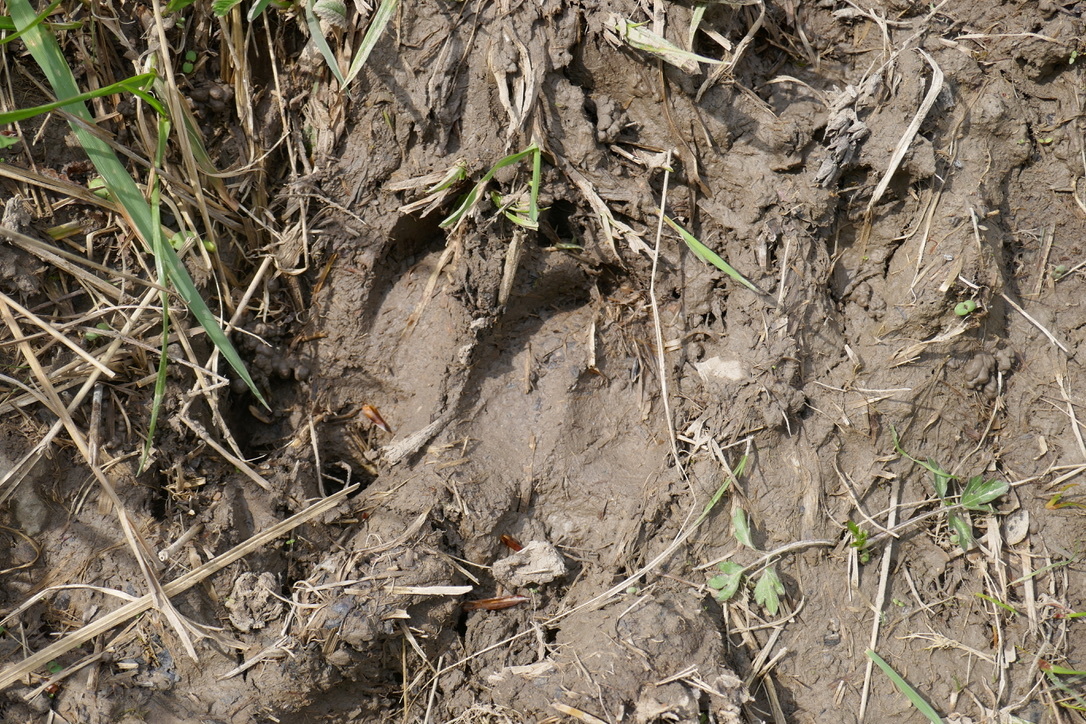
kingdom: Animalia
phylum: Chordata
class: Mammalia
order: Artiodactyla
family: Suidae
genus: Sus
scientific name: Sus scrofa
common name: Wild boar
